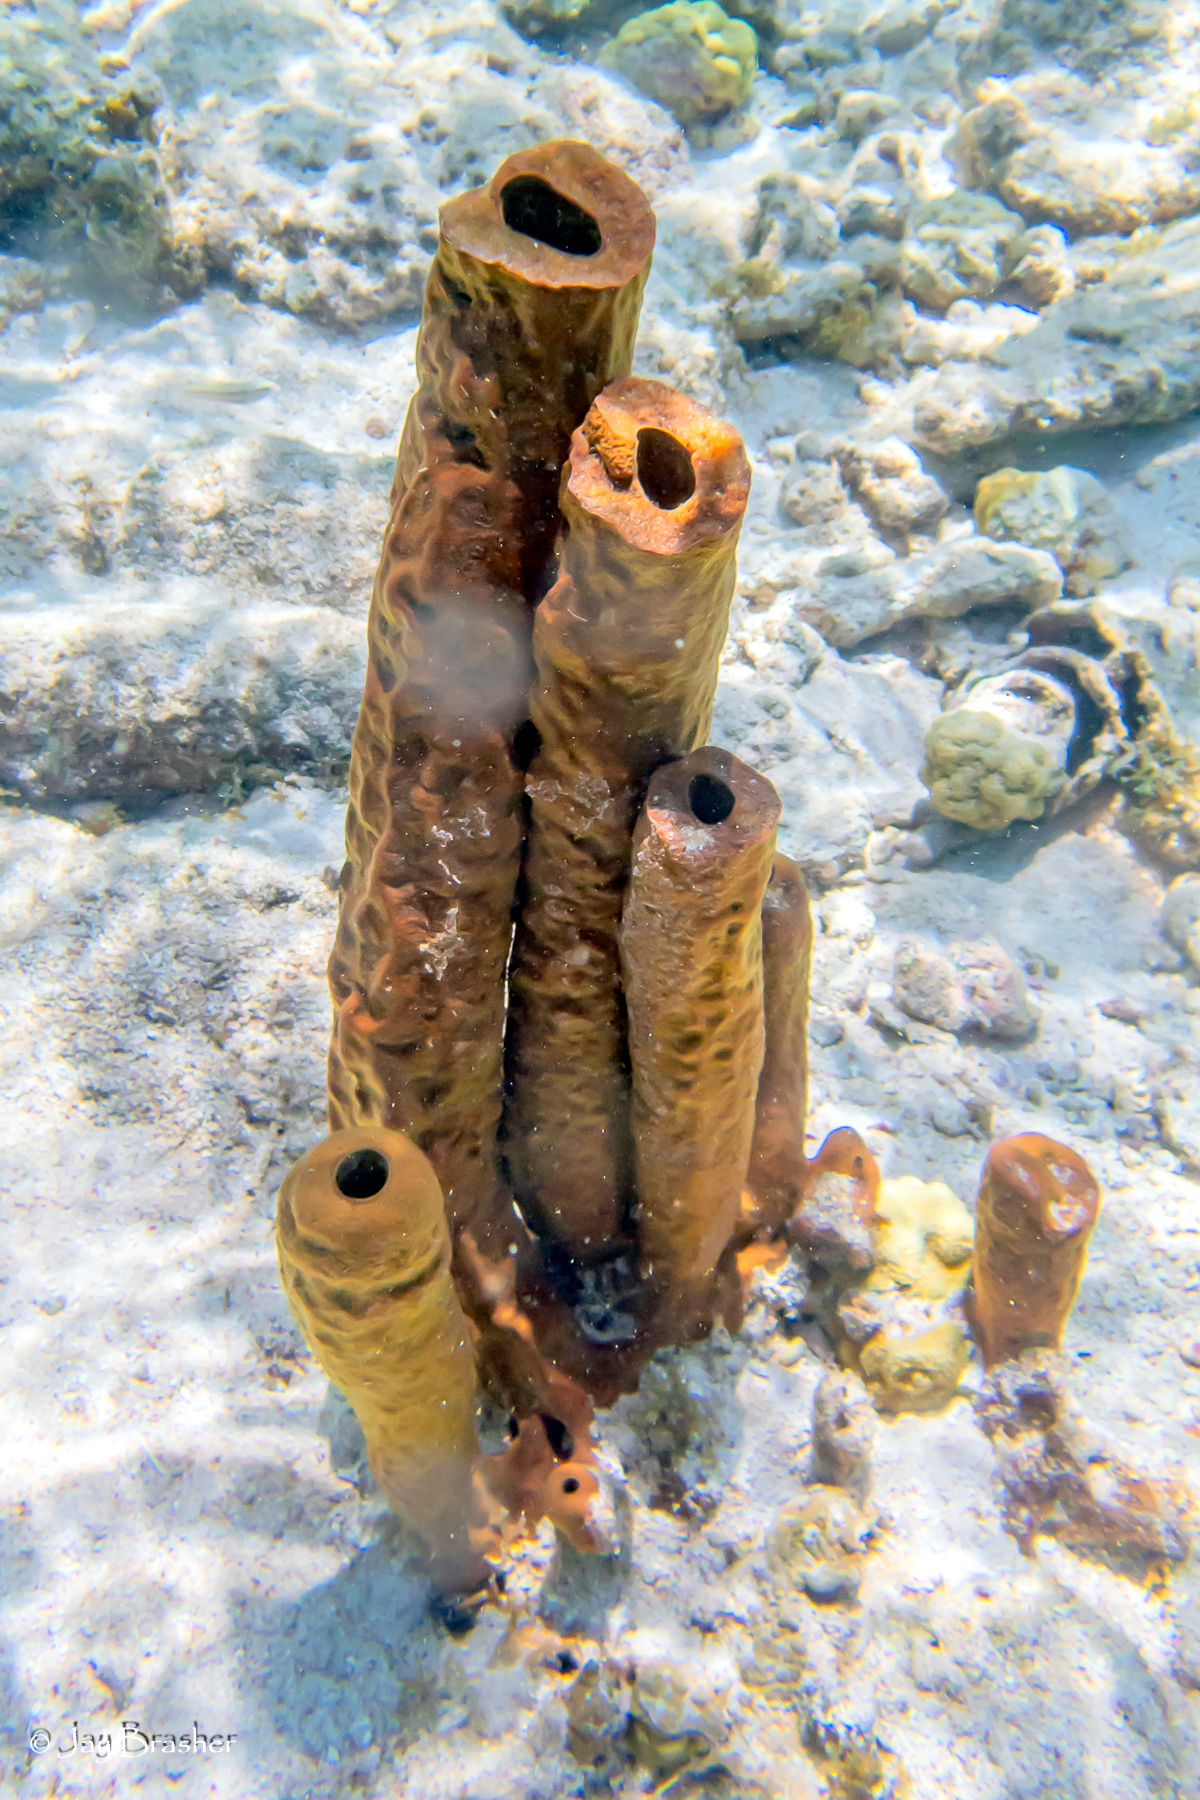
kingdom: Animalia
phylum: Porifera
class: Demospongiae
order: Verongiida
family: Aplysinidae
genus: Aplysina
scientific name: Aplysina fistularis
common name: Candle sponge
